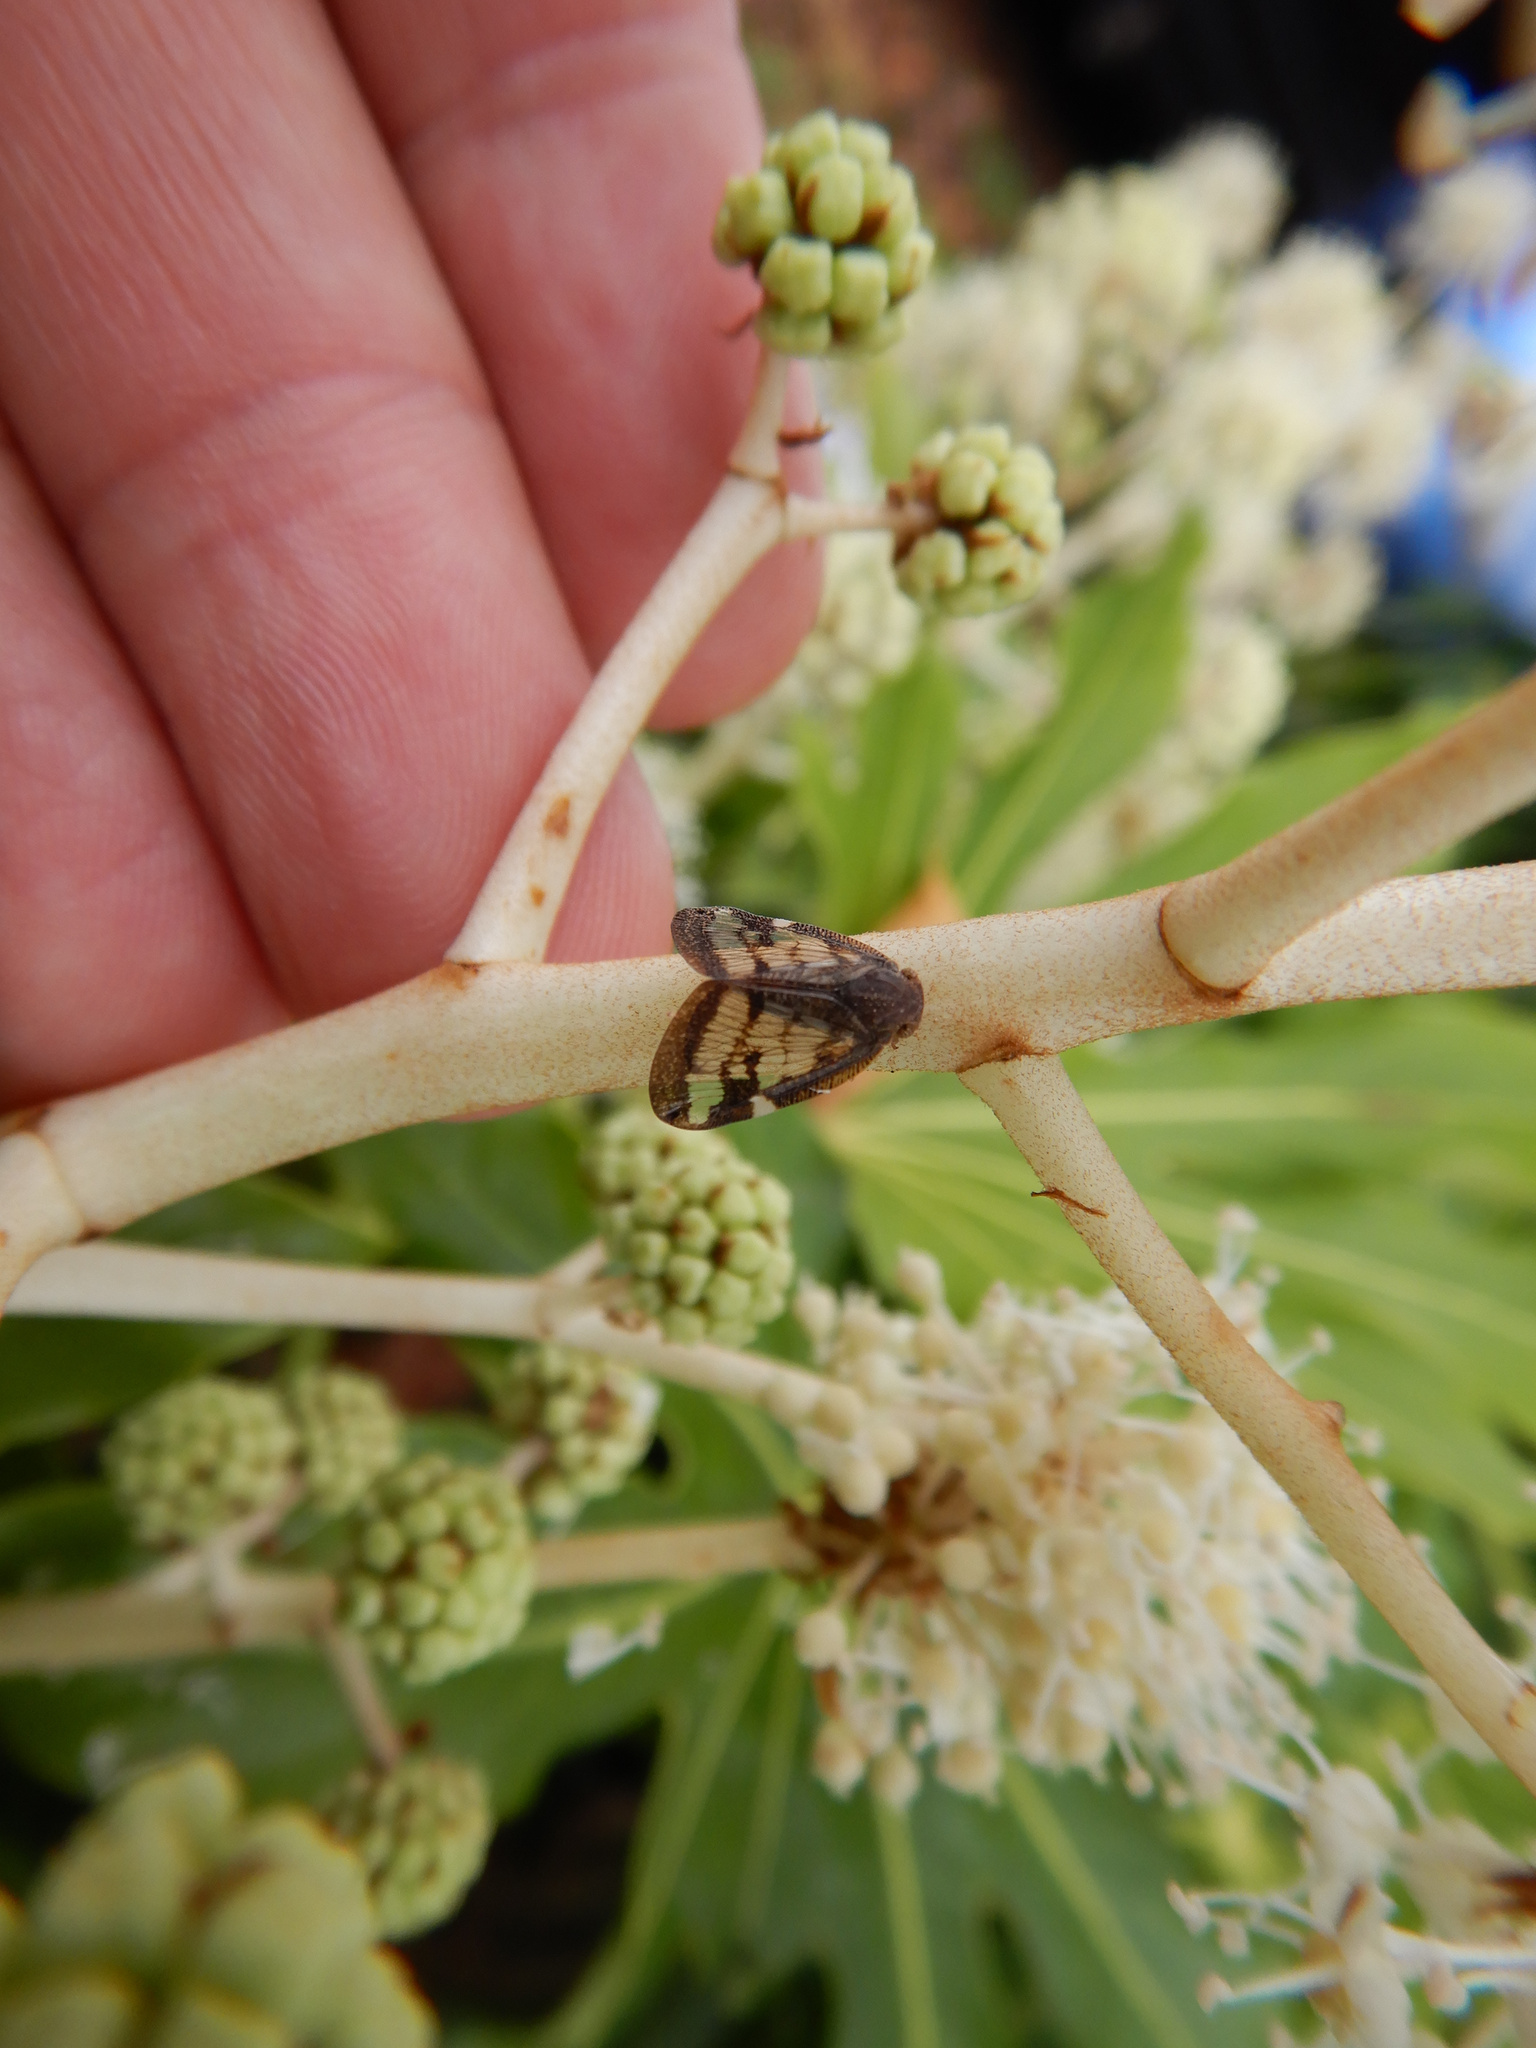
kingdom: Animalia
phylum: Arthropoda
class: Insecta
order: Hemiptera
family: Ricaniidae
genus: Scolypopa
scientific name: Scolypopa australis
